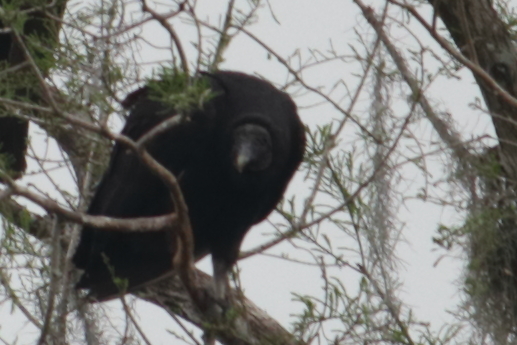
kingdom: Animalia
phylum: Chordata
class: Aves
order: Accipitriformes
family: Cathartidae
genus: Coragyps
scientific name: Coragyps atratus
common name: Black vulture
